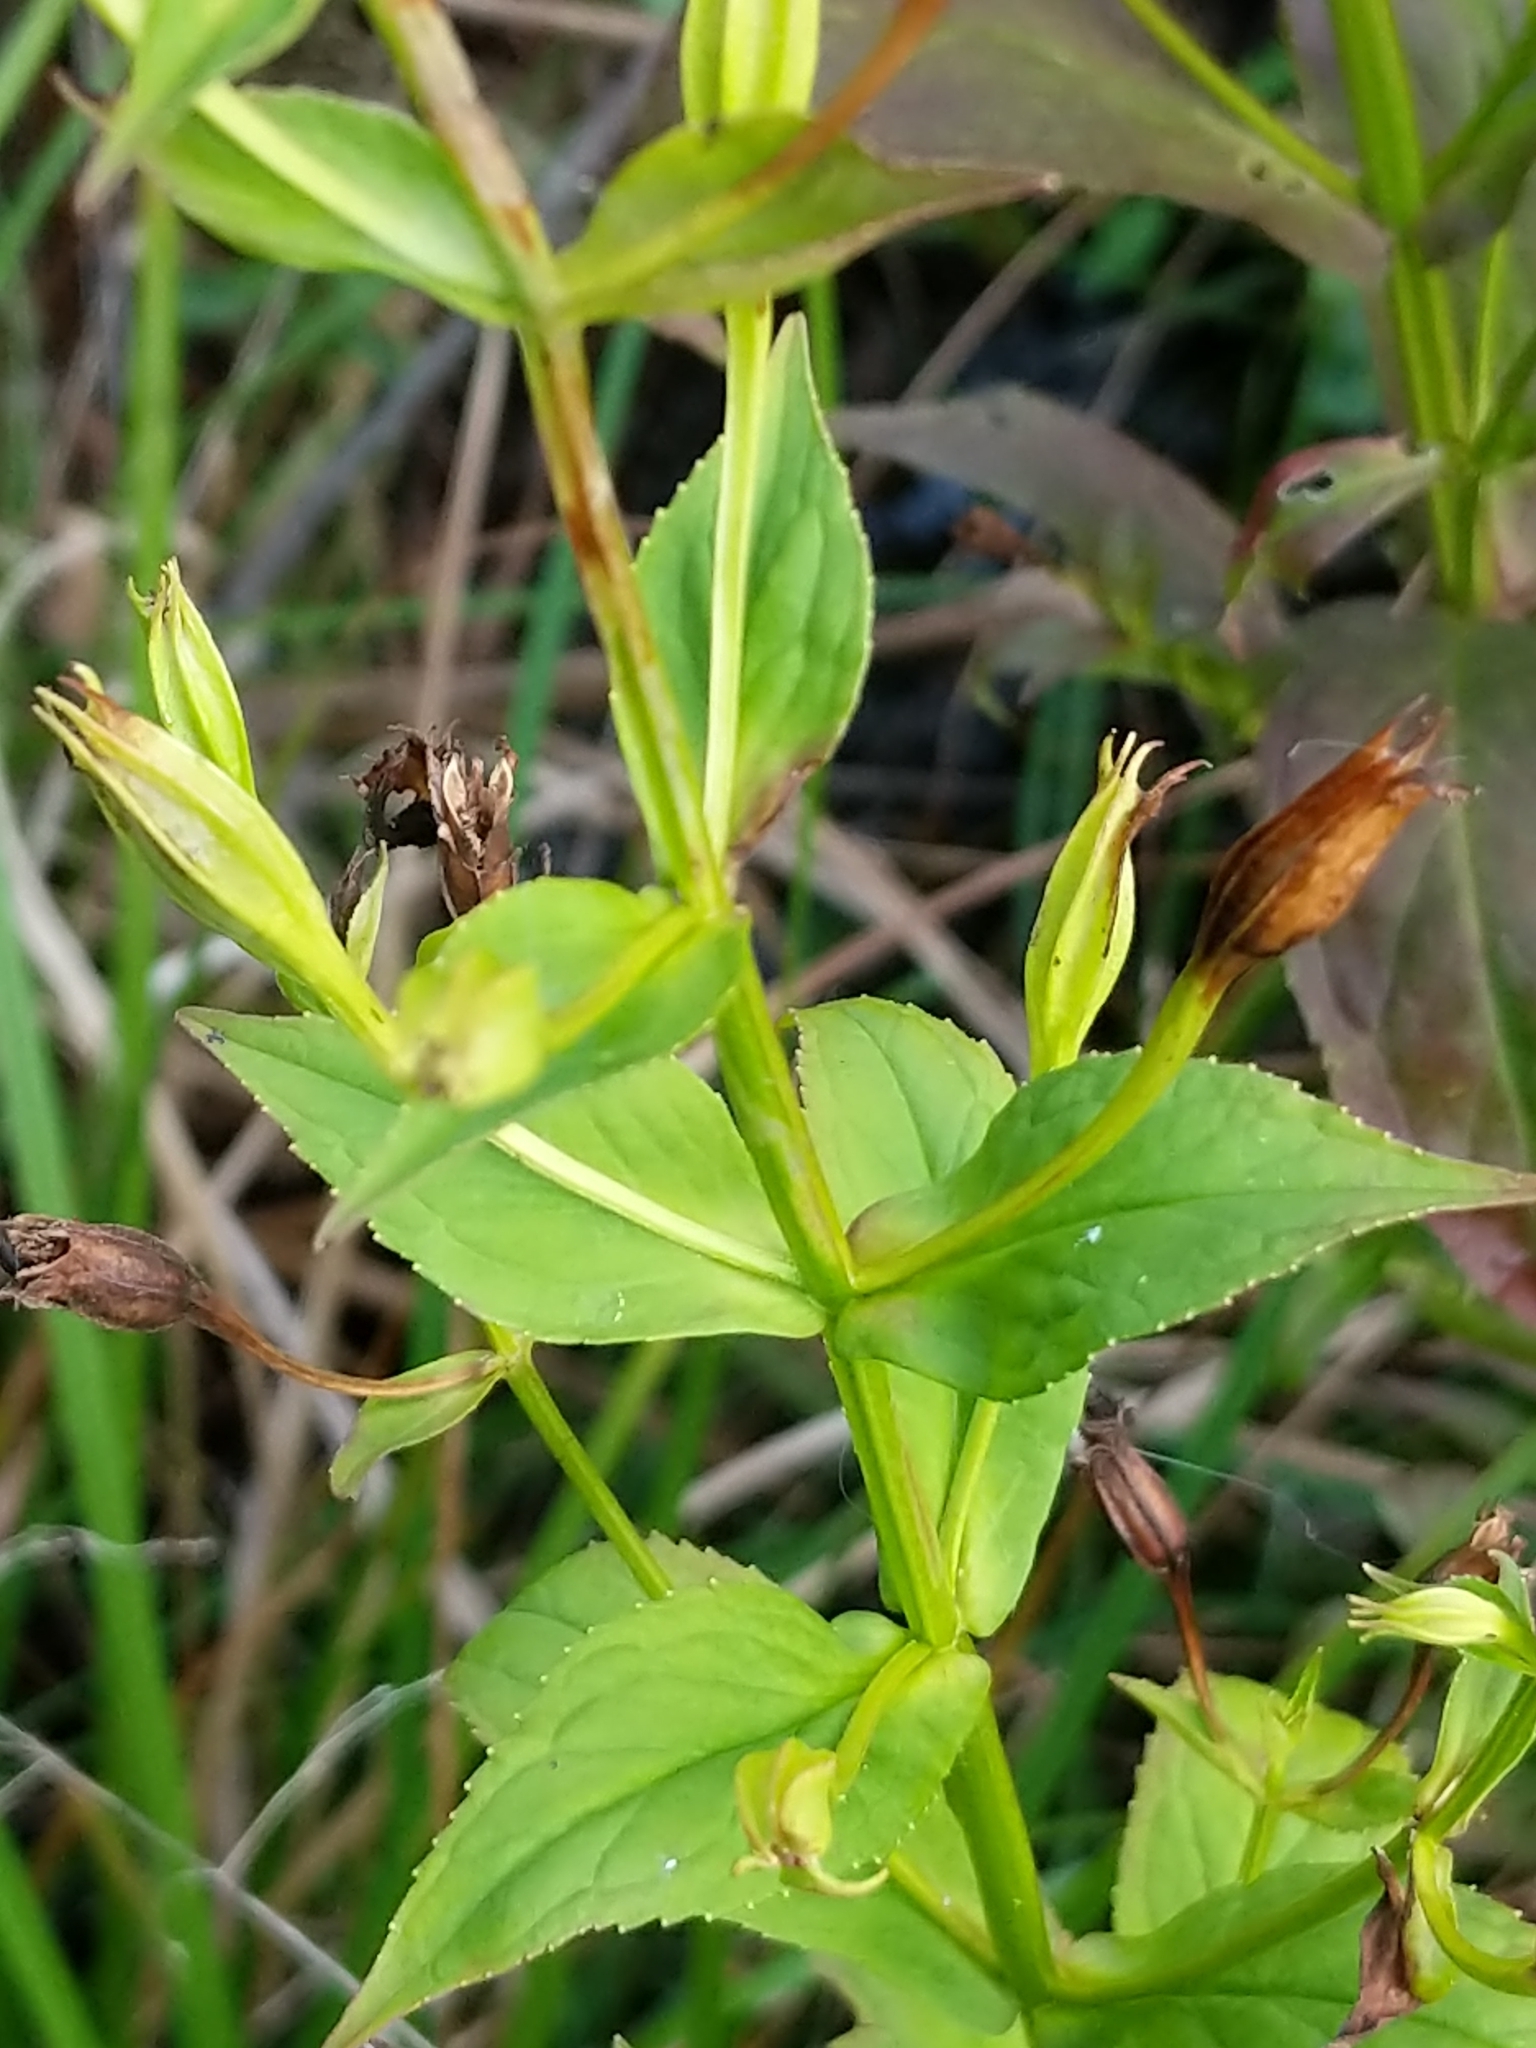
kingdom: Plantae
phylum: Tracheophyta
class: Magnoliopsida
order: Lamiales
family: Phrymaceae
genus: Mimulus
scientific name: Mimulus ringens
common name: Allegheny monkeyflower
